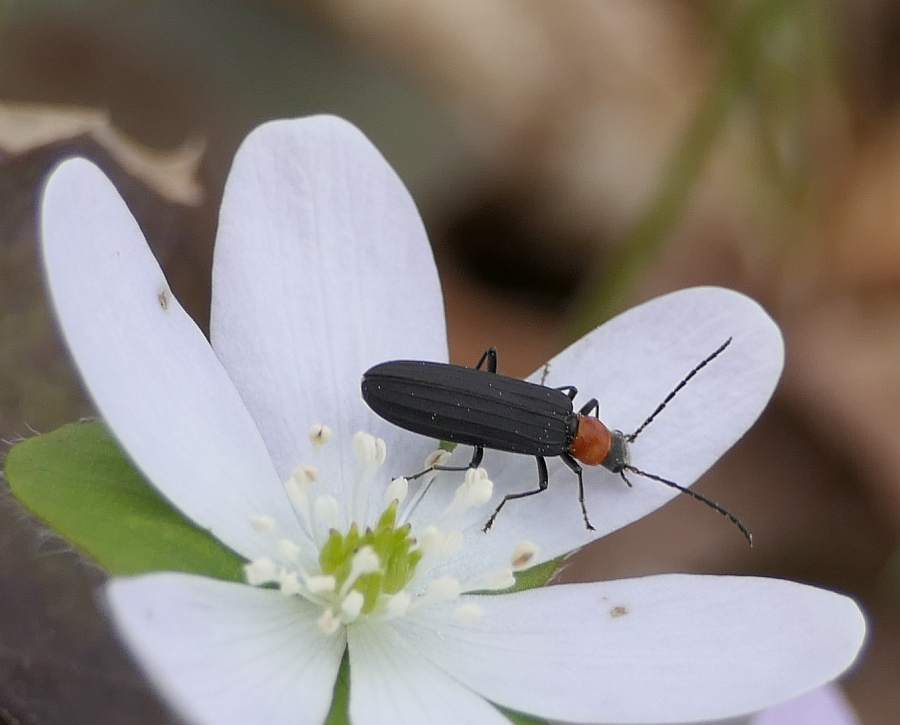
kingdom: Animalia
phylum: Arthropoda
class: Insecta
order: Coleoptera
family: Oedemeridae
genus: Ischnomera
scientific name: Ischnomera
